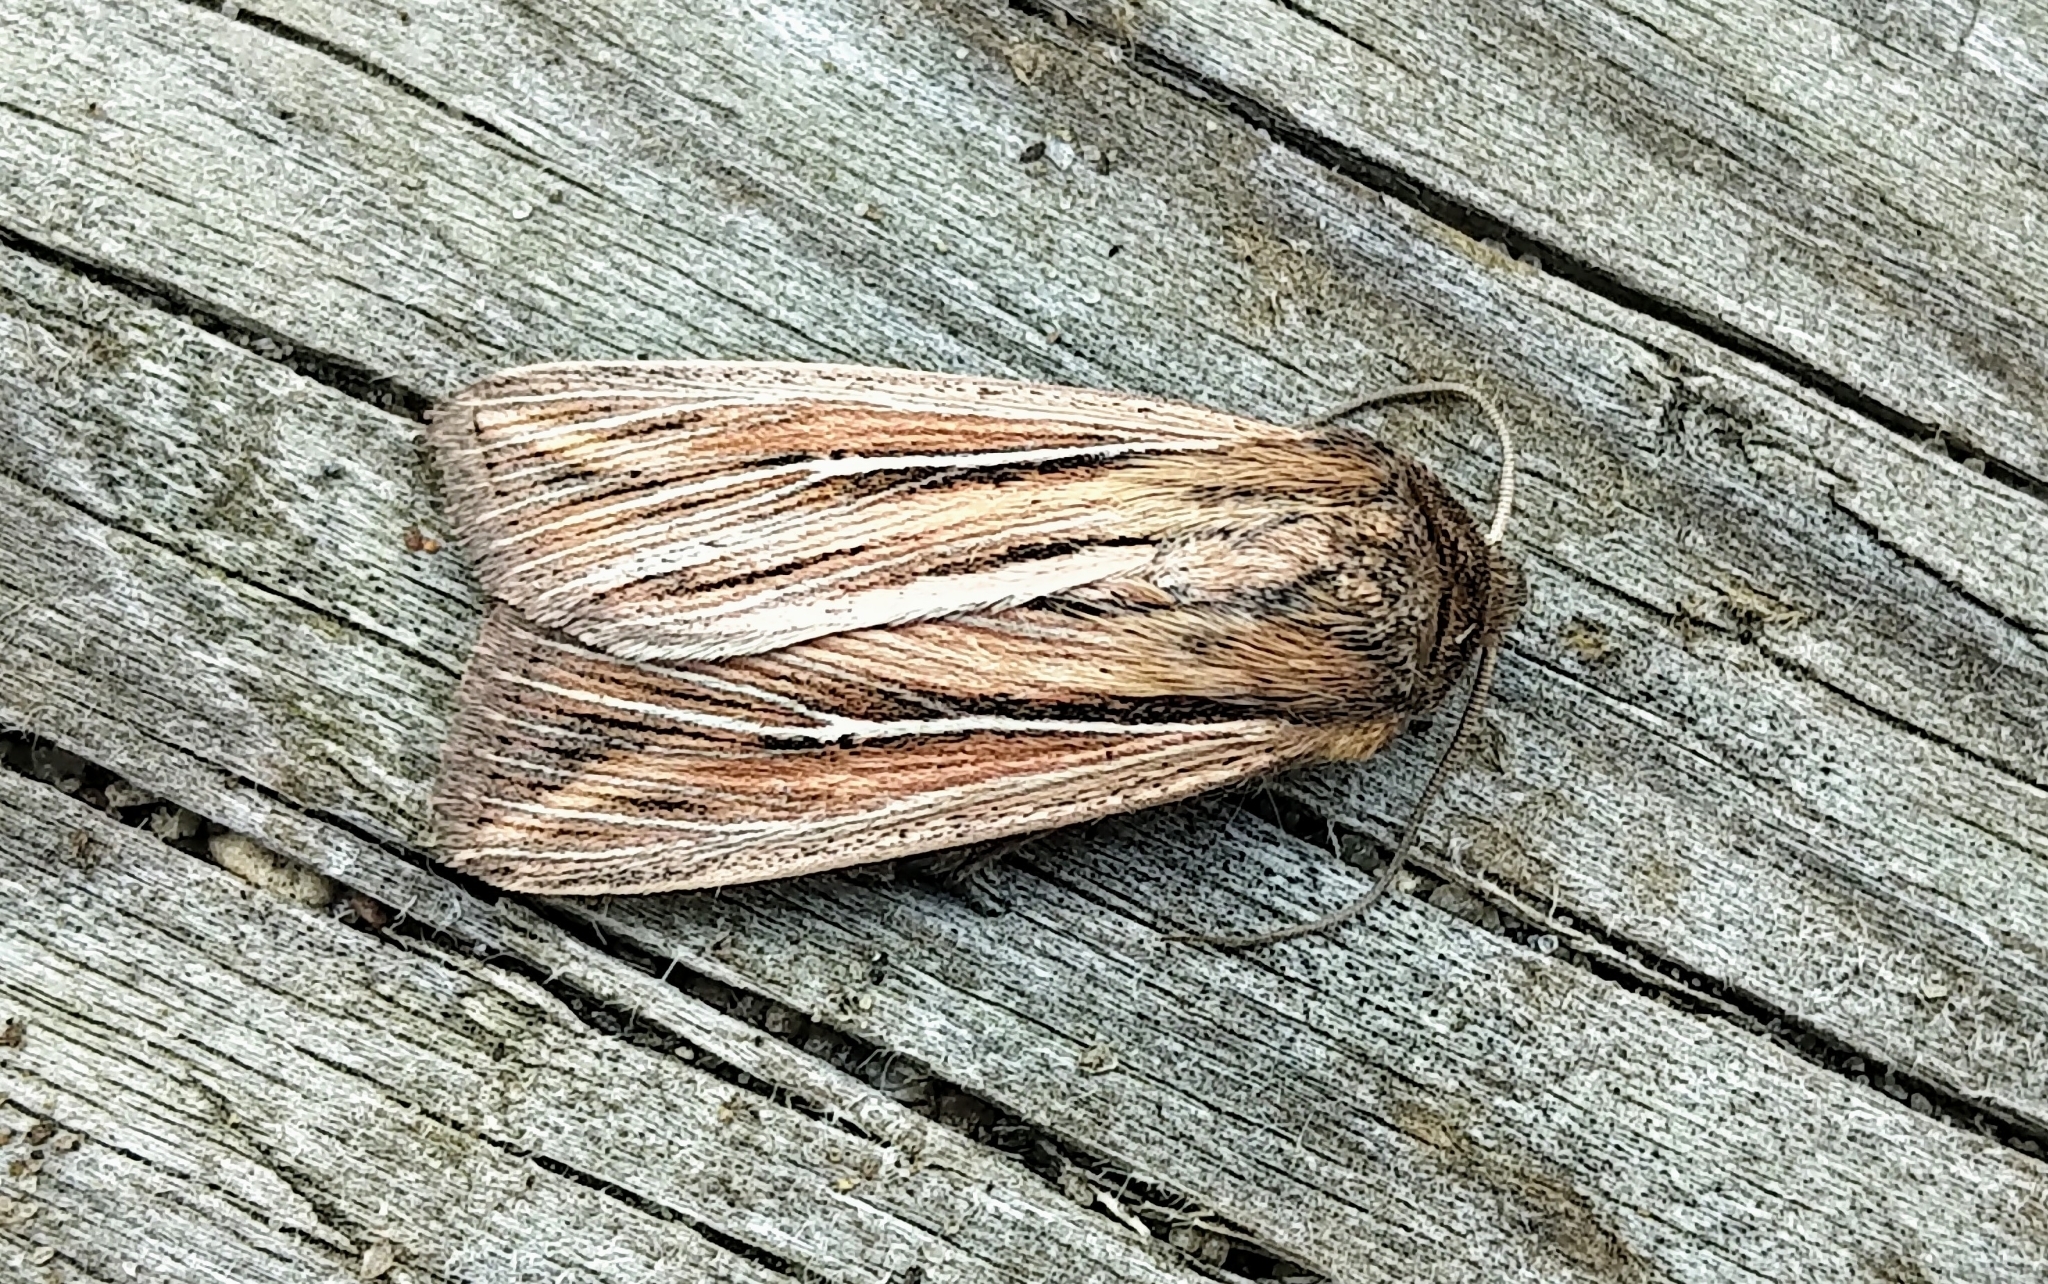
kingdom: Animalia
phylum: Arthropoda
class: Insecta
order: Lepidoptera
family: Noctuidae
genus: Leucania
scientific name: Leucania commoides
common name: Two-lined wainscot
